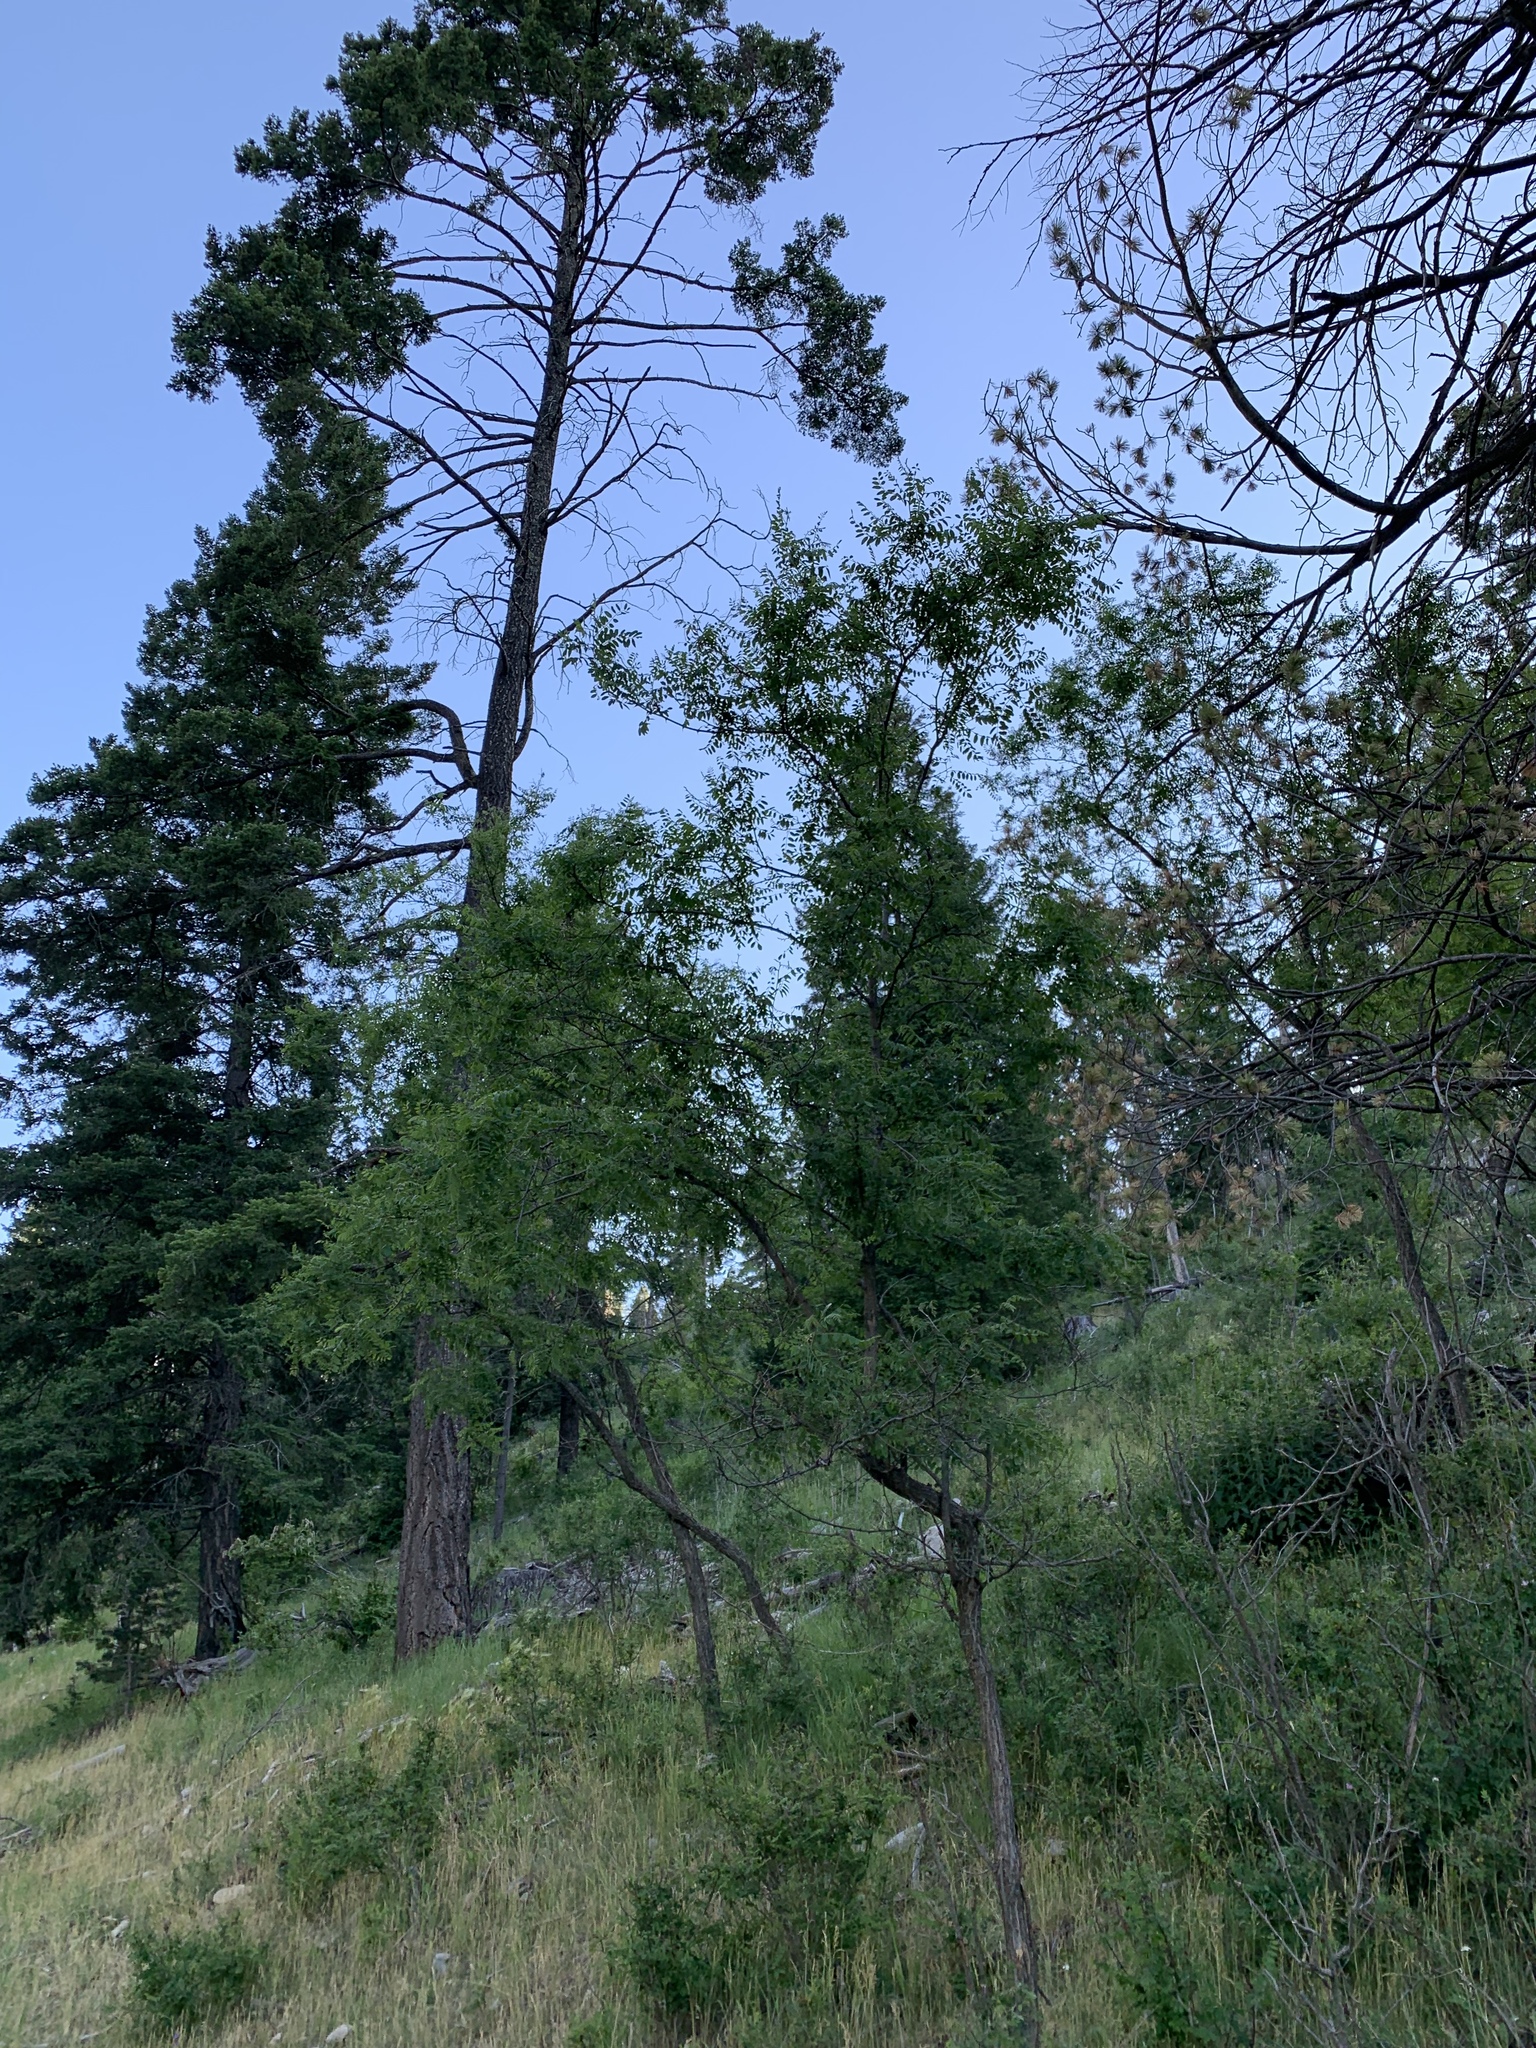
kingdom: Plantae
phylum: Tracheophyta
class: Magnoliopsida
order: Fabales
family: Fabaceae
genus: Robinia
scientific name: Robinia neomexicana
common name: New mexico locust
